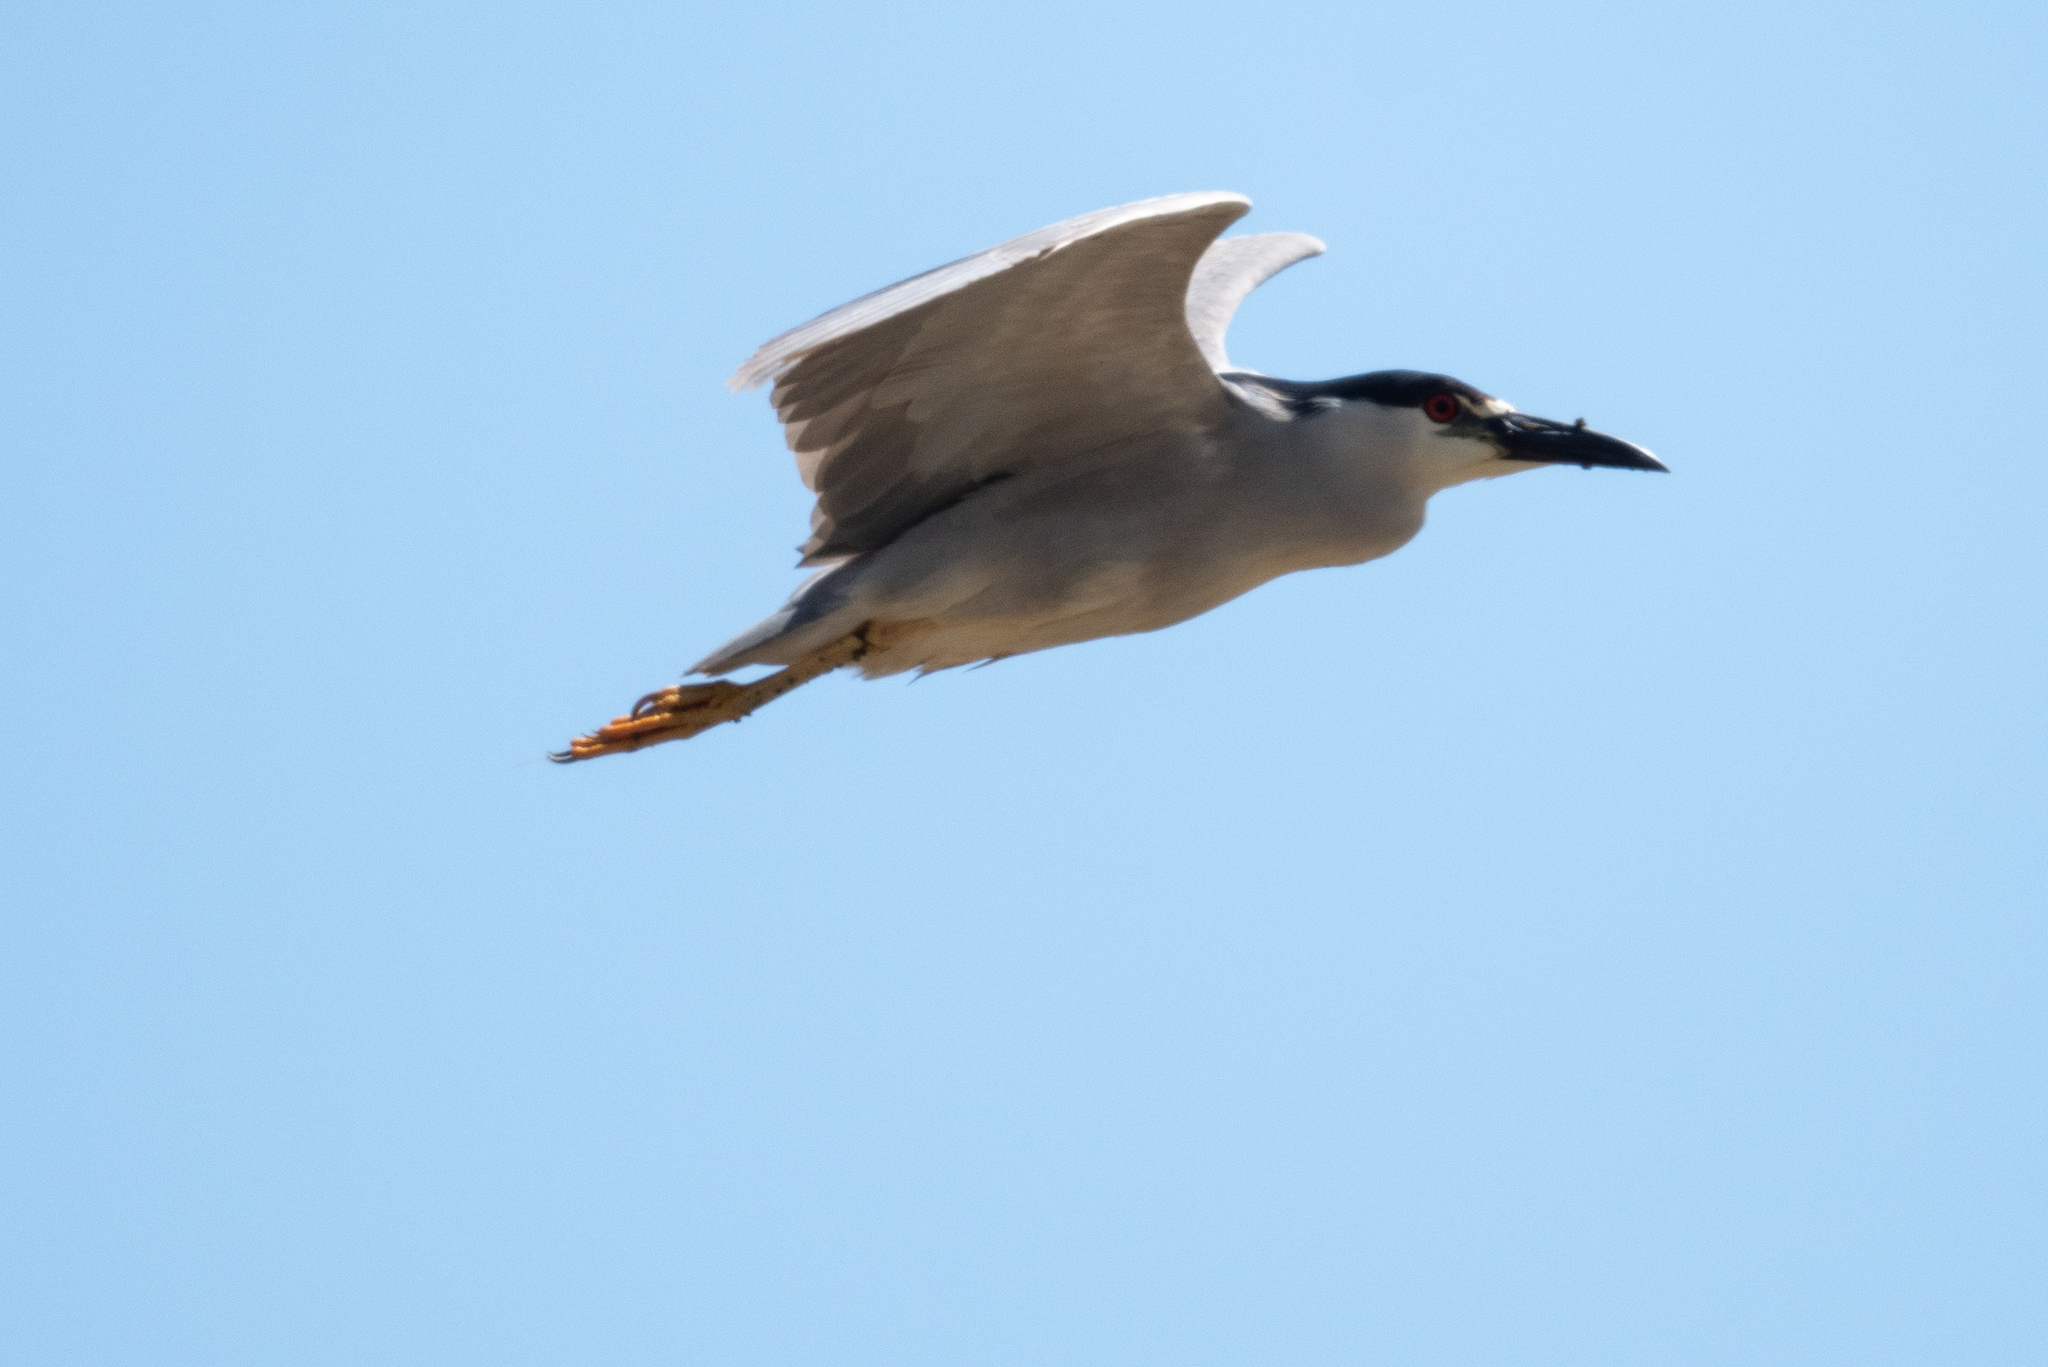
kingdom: Animalia
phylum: Chordata
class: Aves
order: Pelecaniformes
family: Ardeidae
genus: Nycticorax
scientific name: Nycticorax nycticorax
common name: Black-crowned night heron
